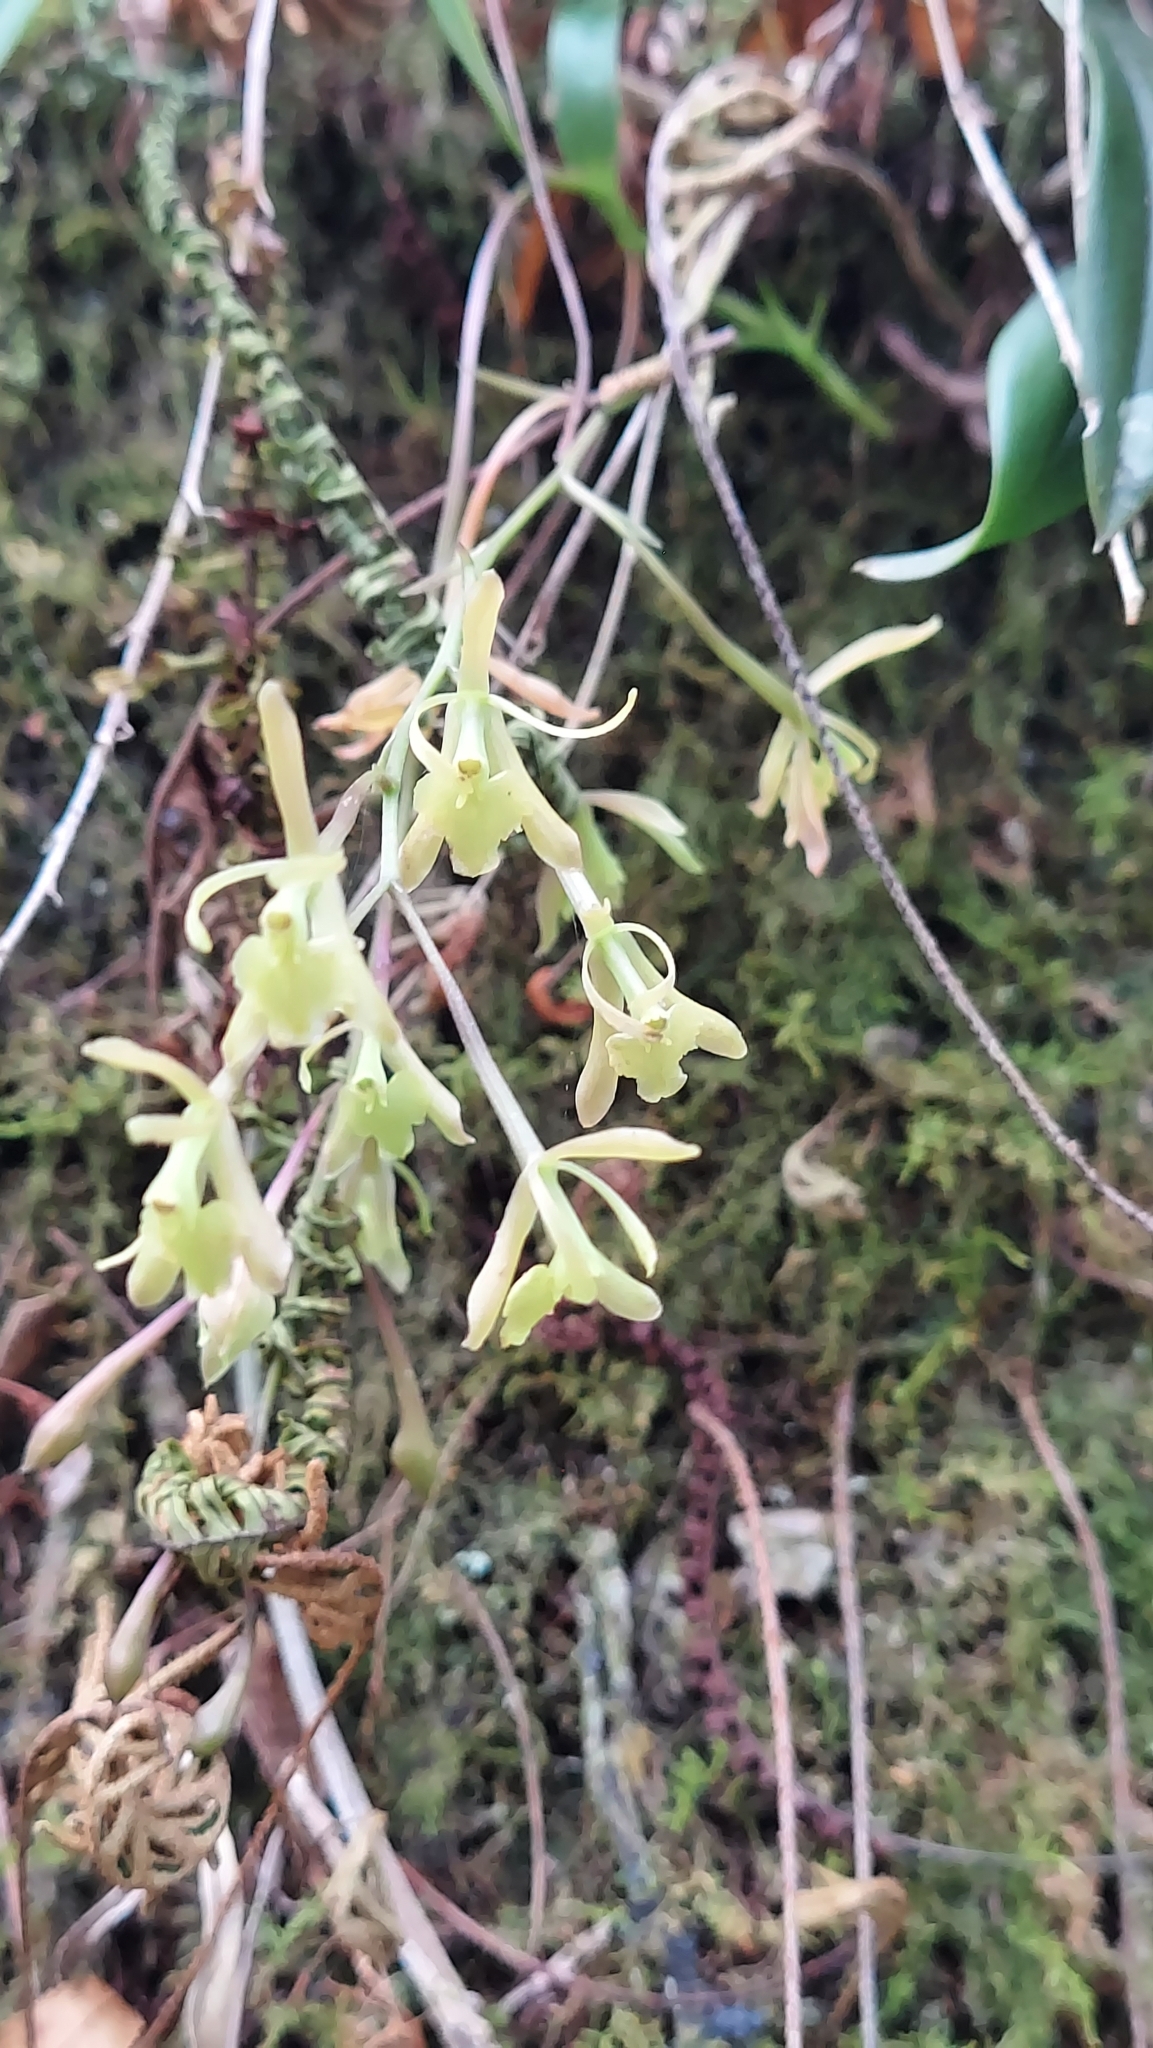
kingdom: Plantae
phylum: Tracheophyta
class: Liliopsida
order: Asparagales
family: Orchidaceae
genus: Epidendrum
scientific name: Epidendrum conopseum
